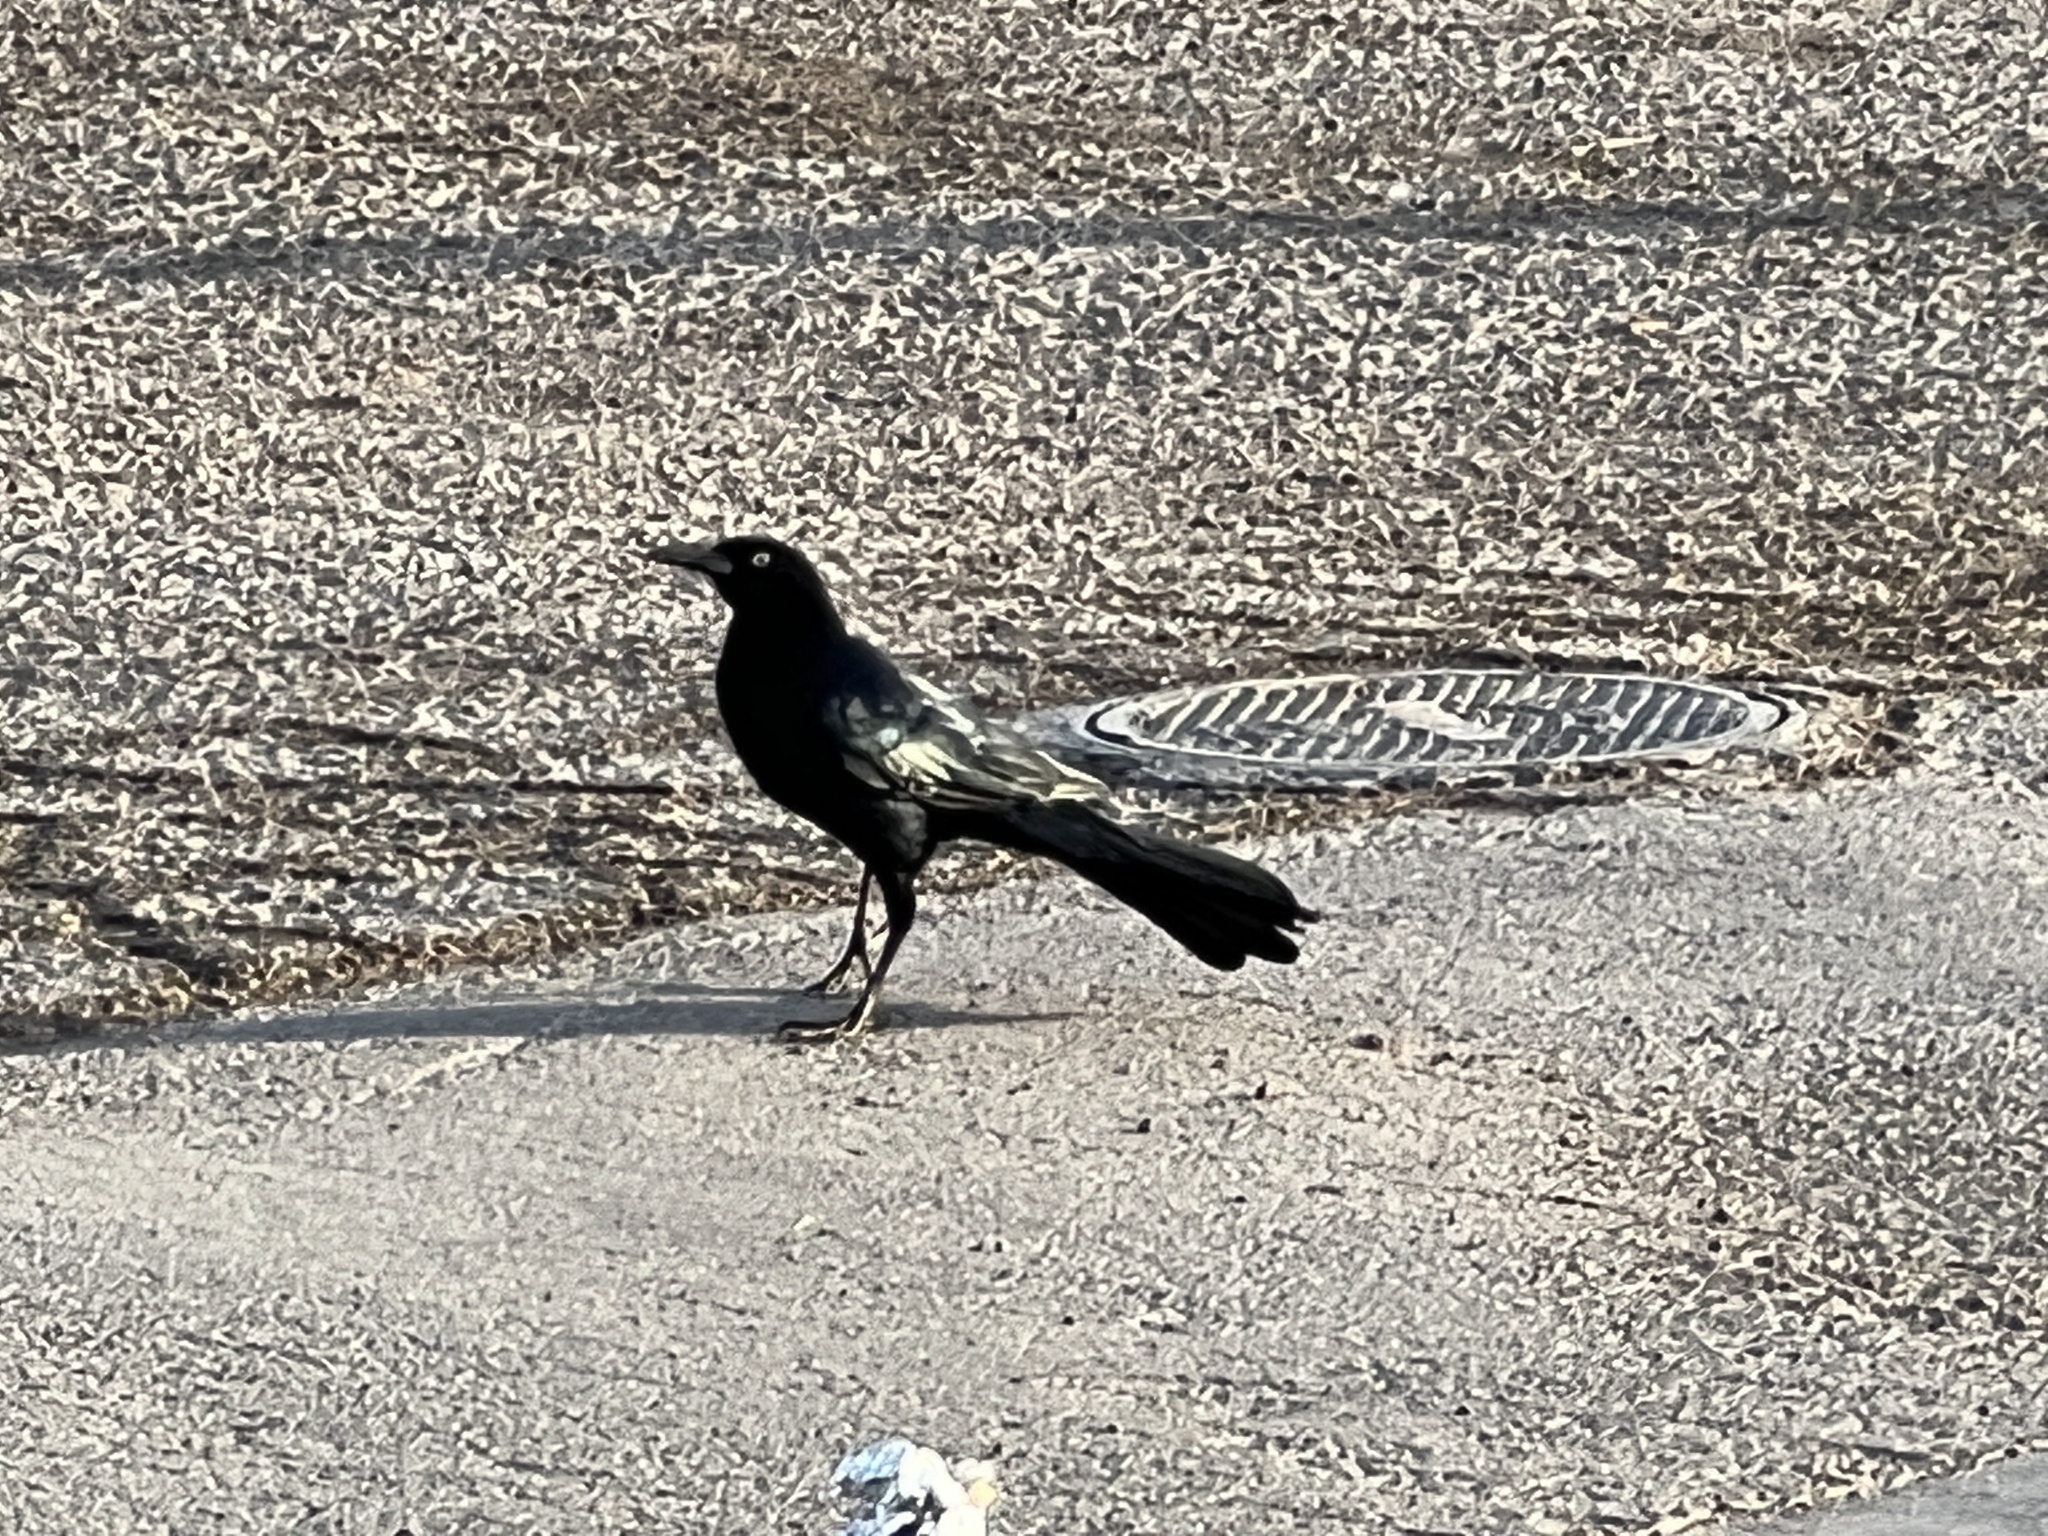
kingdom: Animalia
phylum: Chordata
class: Aves
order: Passeriformes
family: Icteridae
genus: Quiscalus
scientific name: Quiscalus mexicanus
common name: Great-tailed grackle
